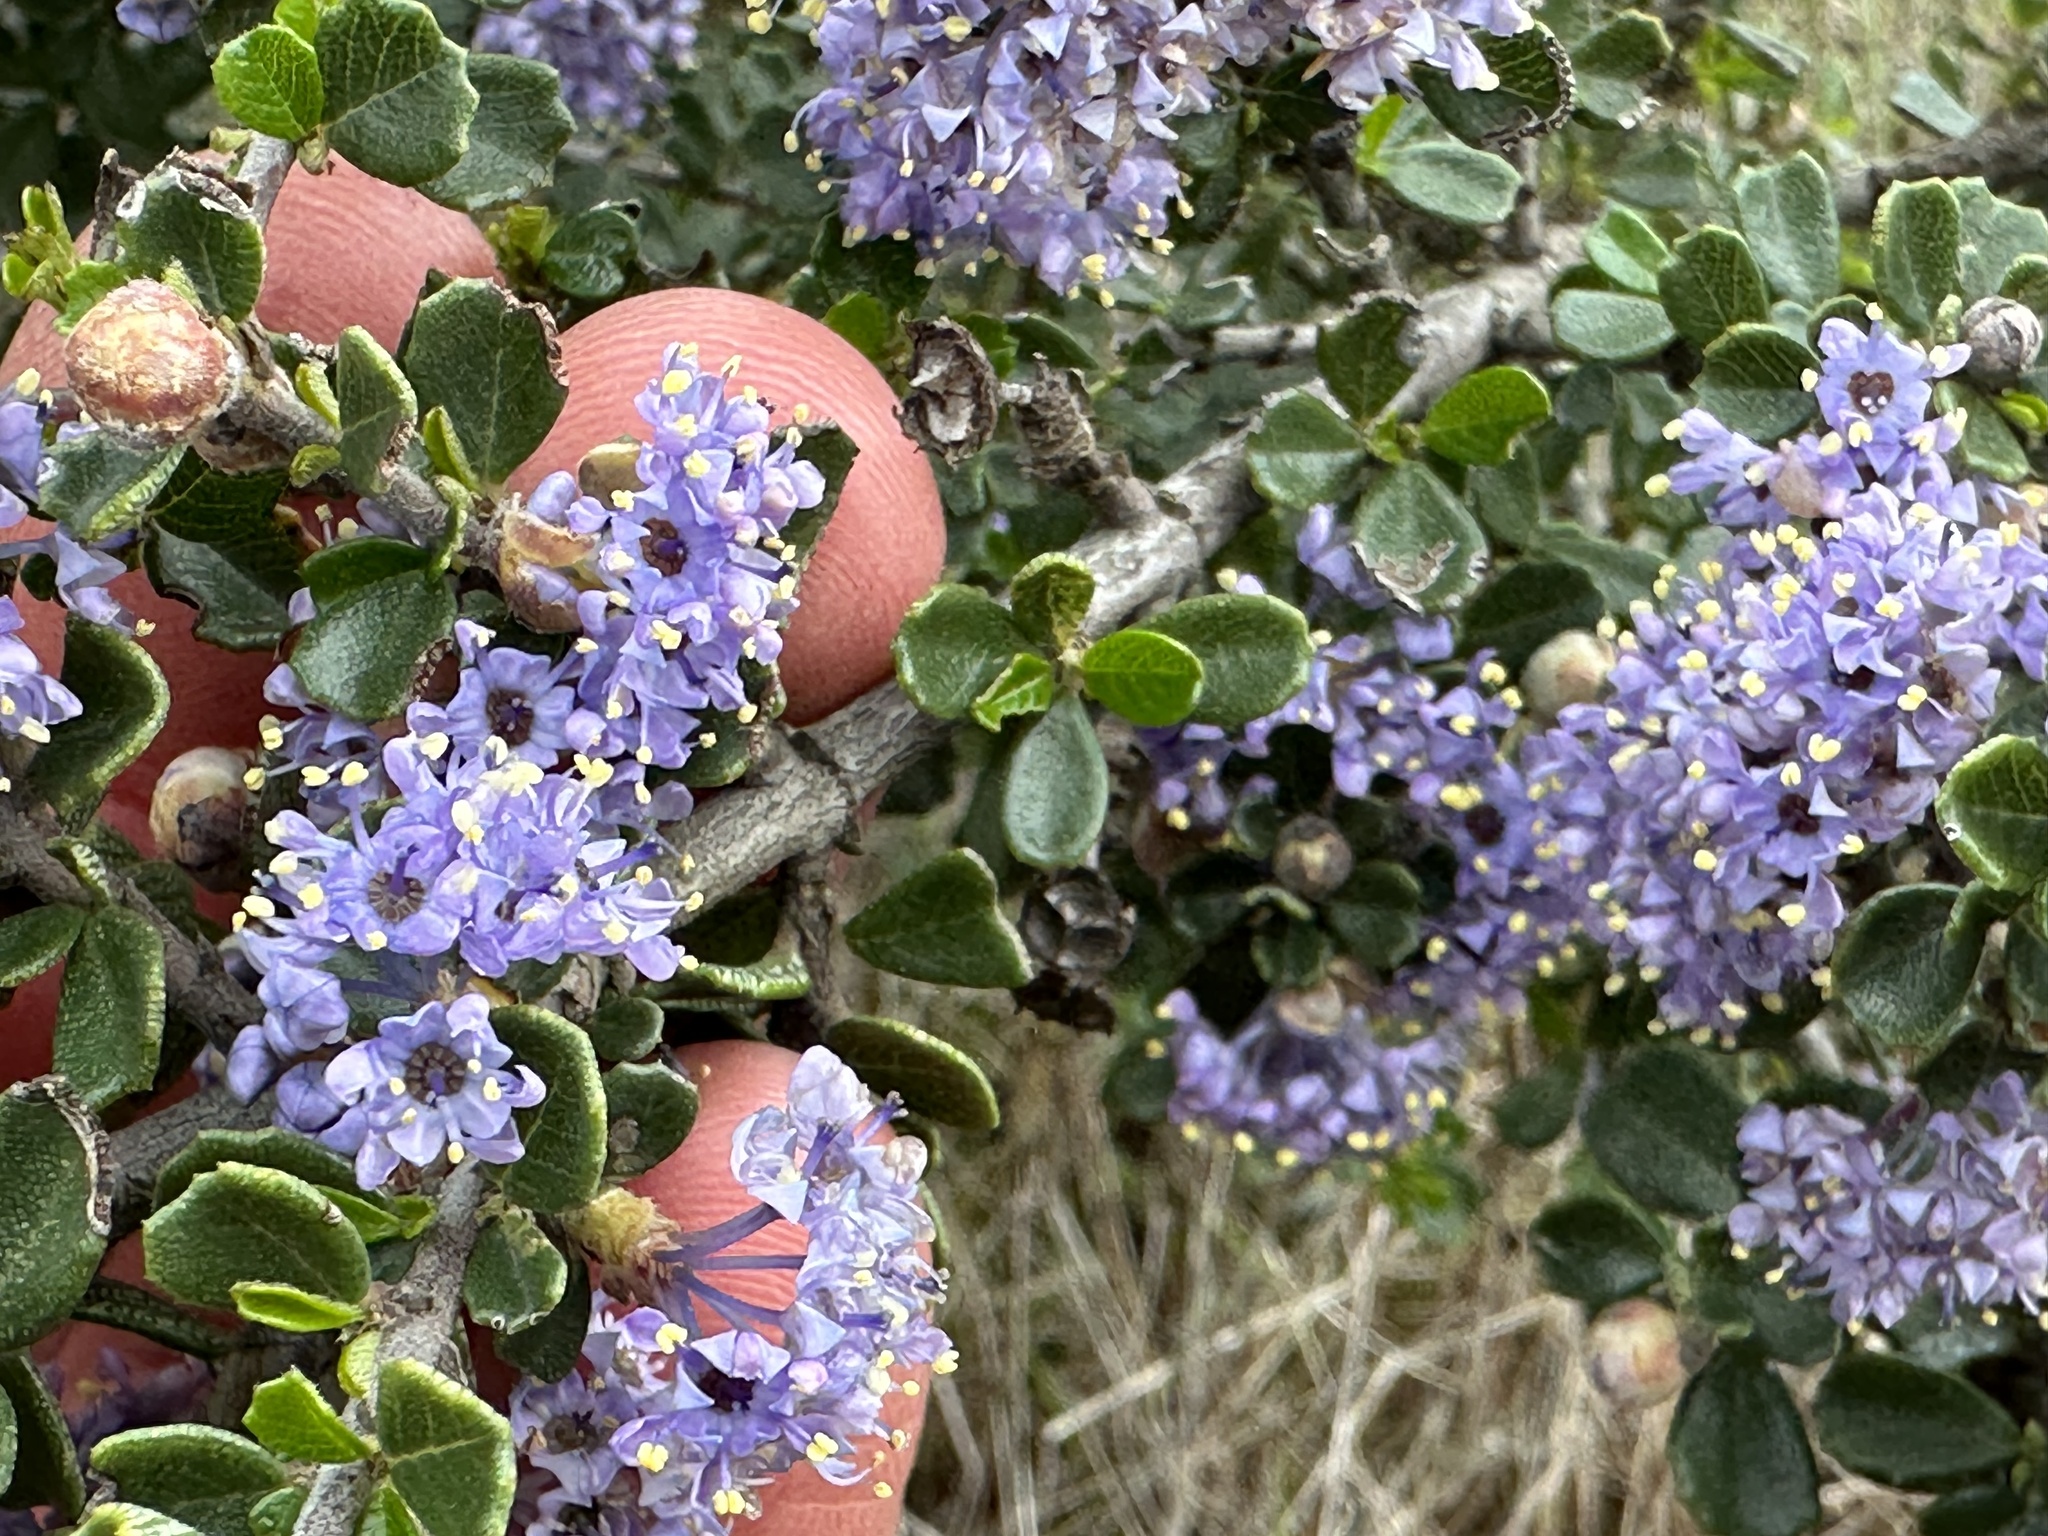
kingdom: Plantae
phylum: Tracheophyta
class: Magnoliopsida
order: Rosales
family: Rhamnaceae
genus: Ceanothus
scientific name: Ceanothus cuneatus
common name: Cuneate ceanothus
